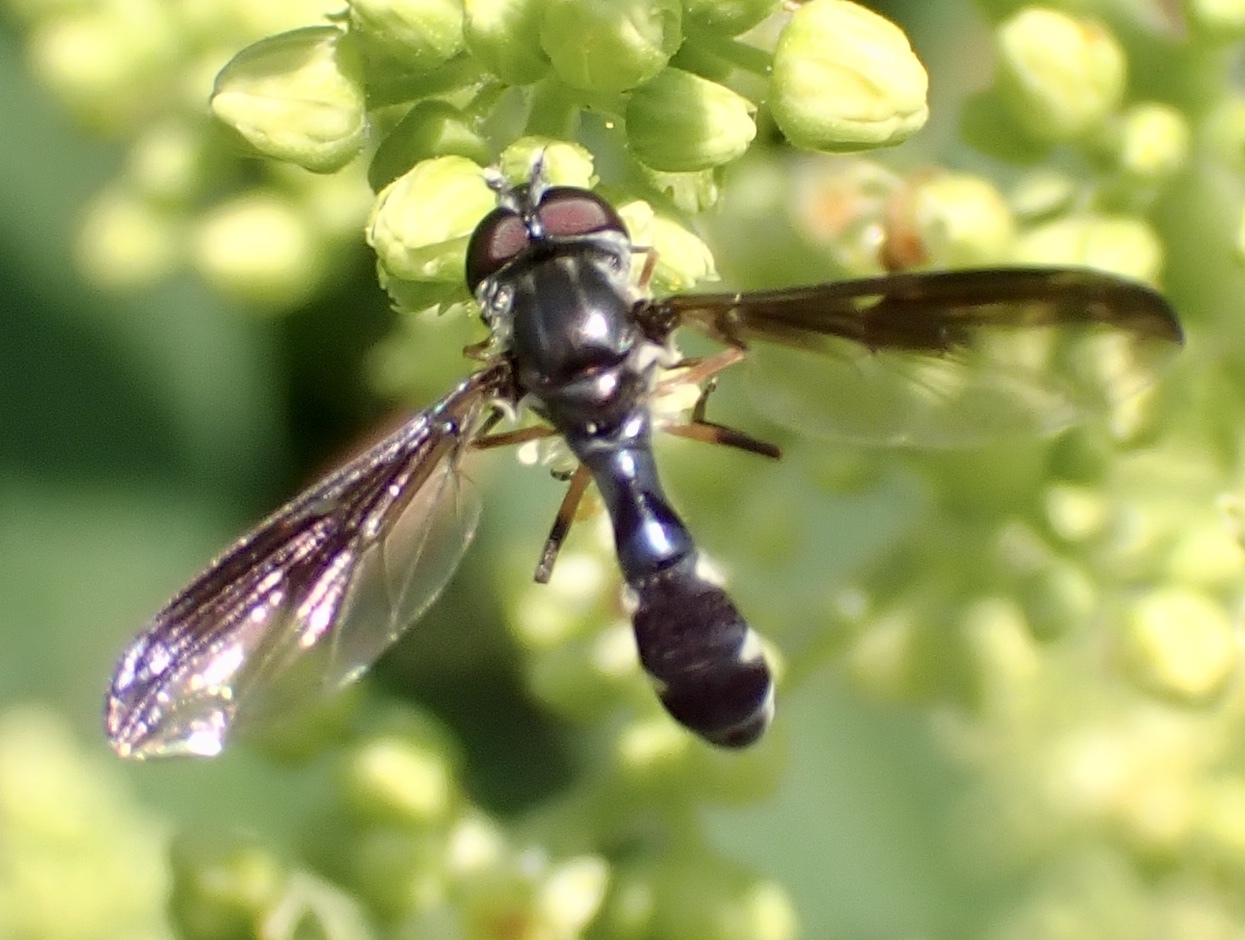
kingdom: Animalia
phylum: Arthropoda
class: Insecta
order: Diptera
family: Syrphidae
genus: Ocyptamus
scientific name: Ocyptamus costatus
